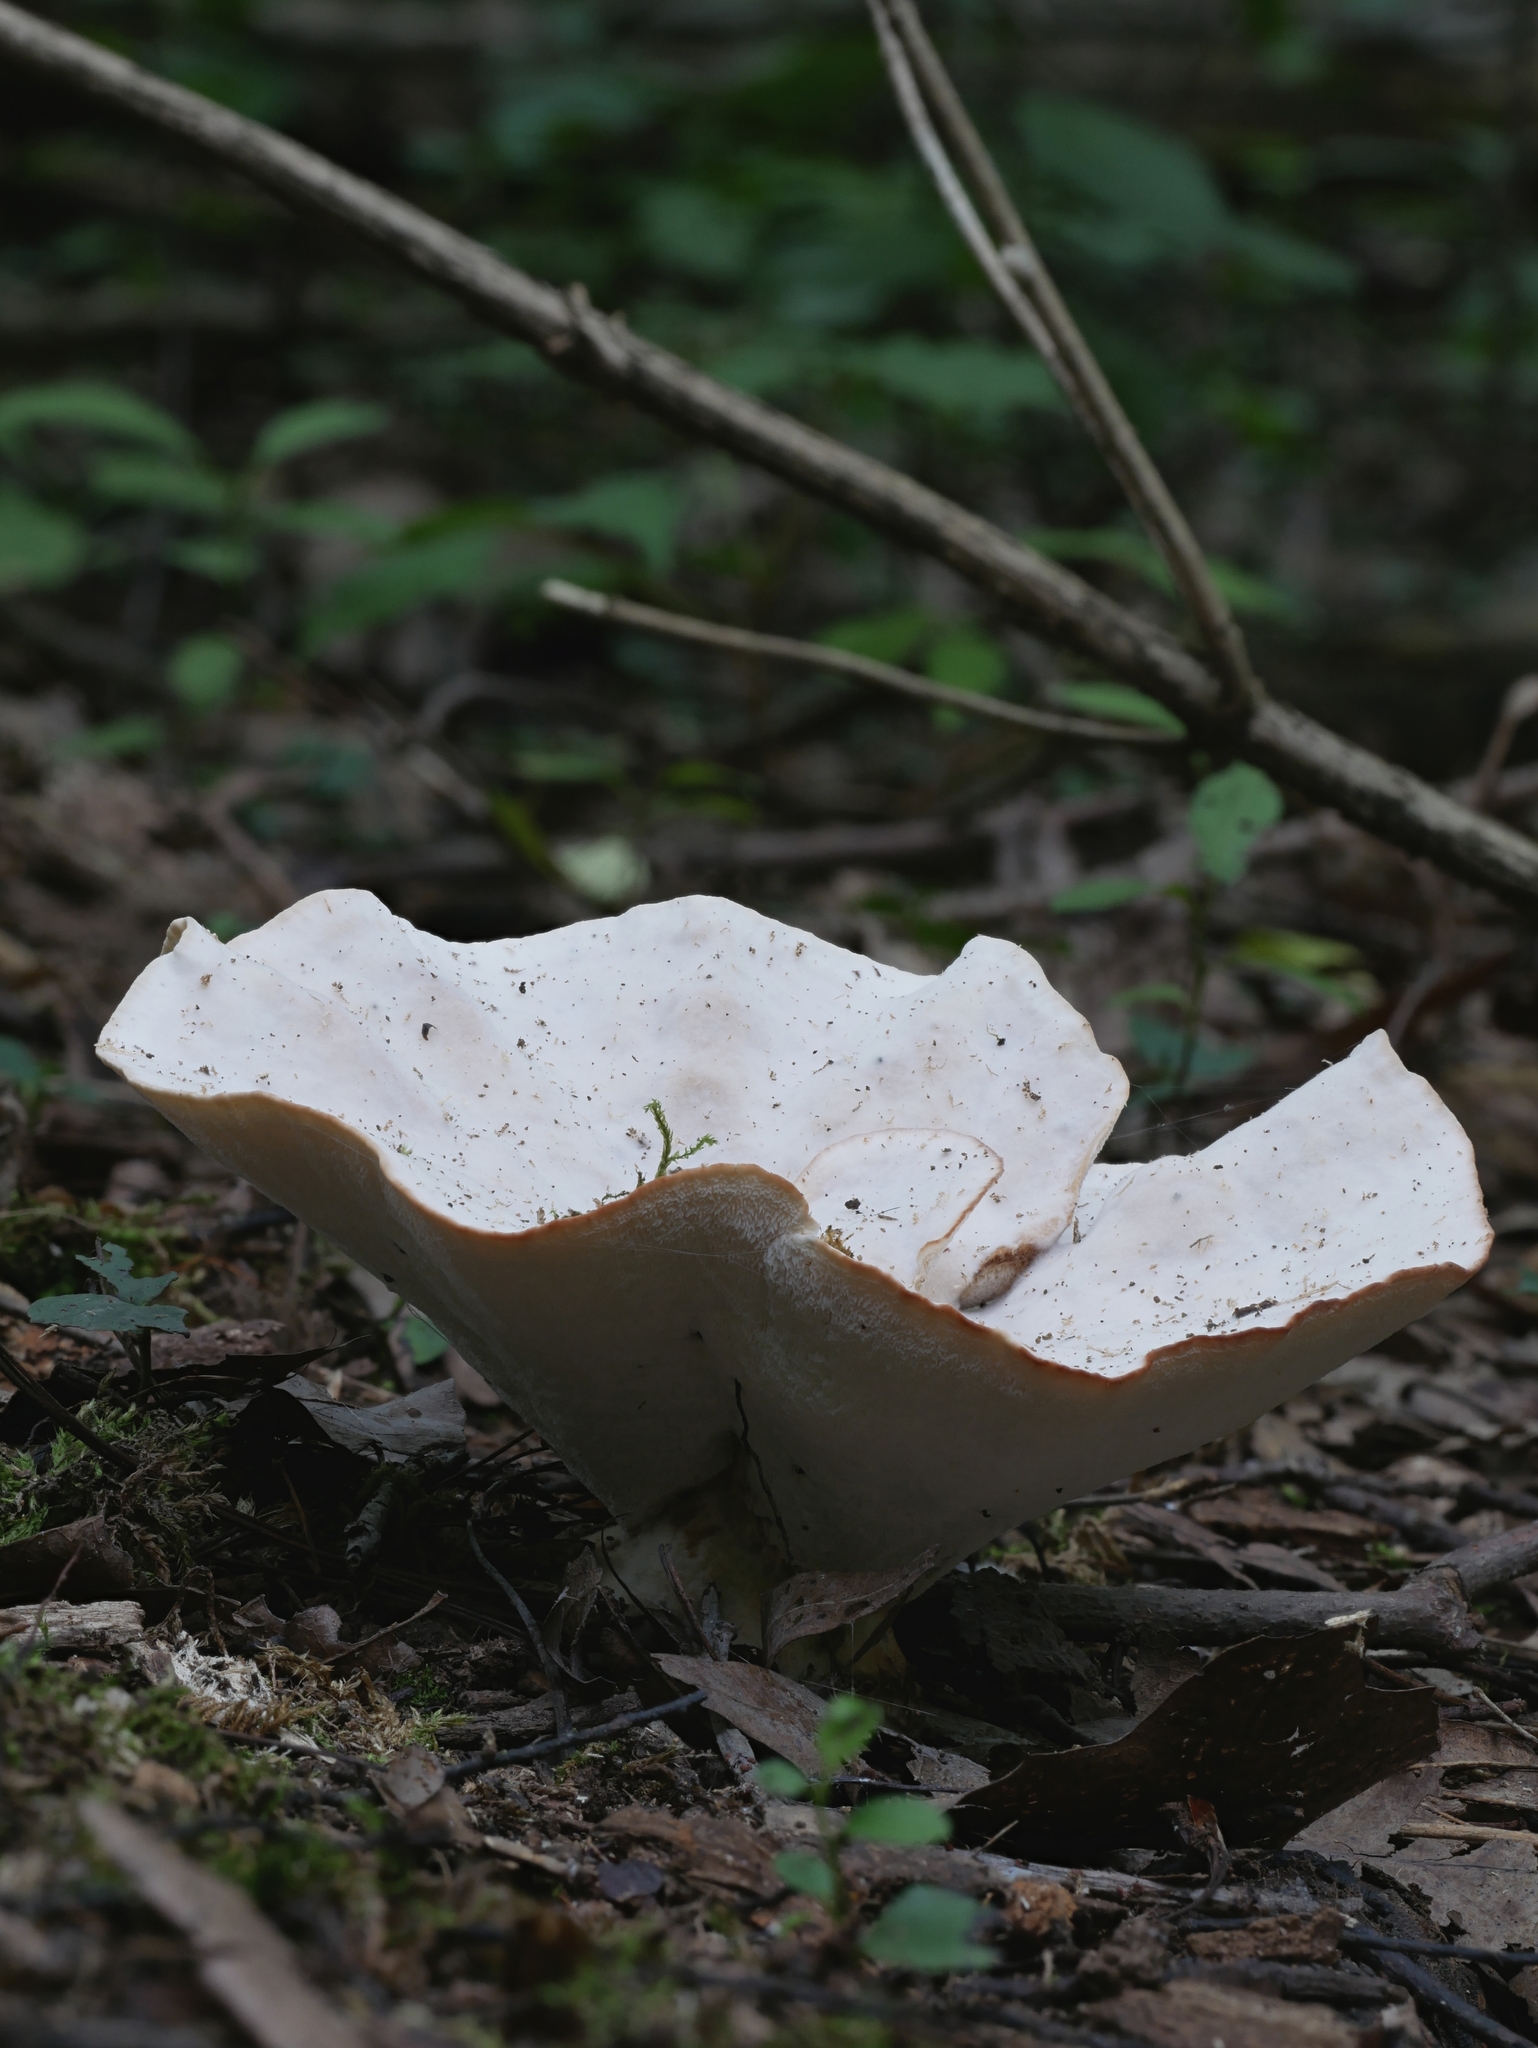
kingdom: Fungi
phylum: Basidiomycota
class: Agaricomycetes
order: Polyporales
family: Podoscyphaceae
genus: Abortiporus
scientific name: Abortiporus biennis
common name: Blushing rosette
